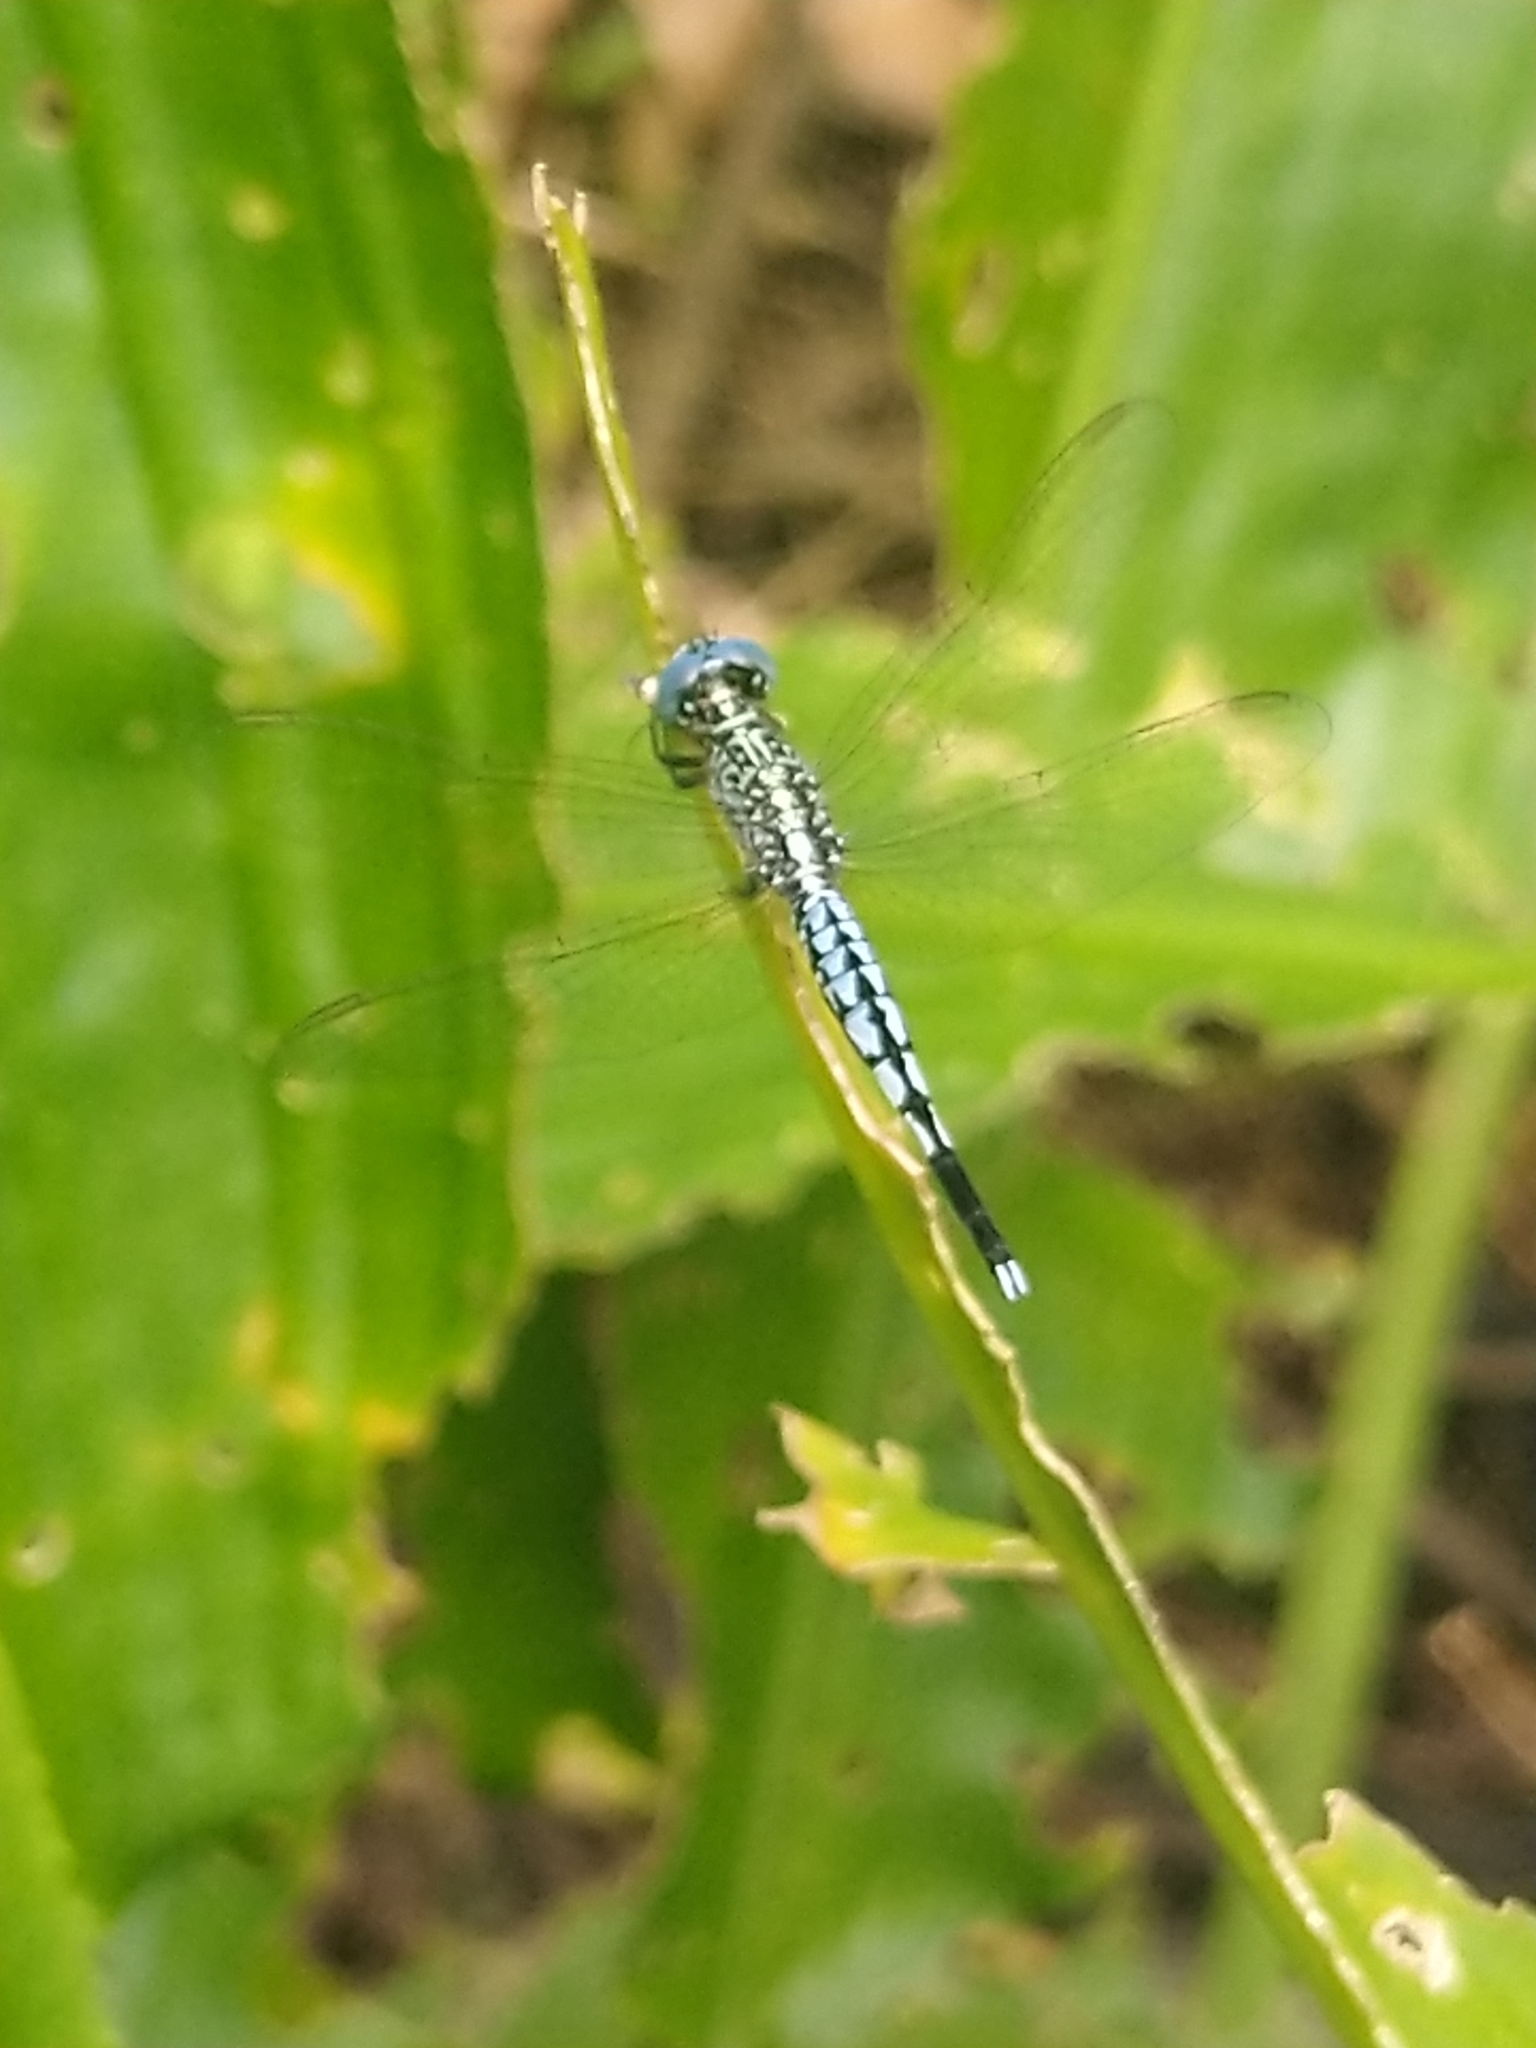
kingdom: Animalia
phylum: Arthropoda
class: Insecta
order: Odonata
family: Libellulidae
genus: Acisoma
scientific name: Acisoma panorpoides
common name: Asian pintail
